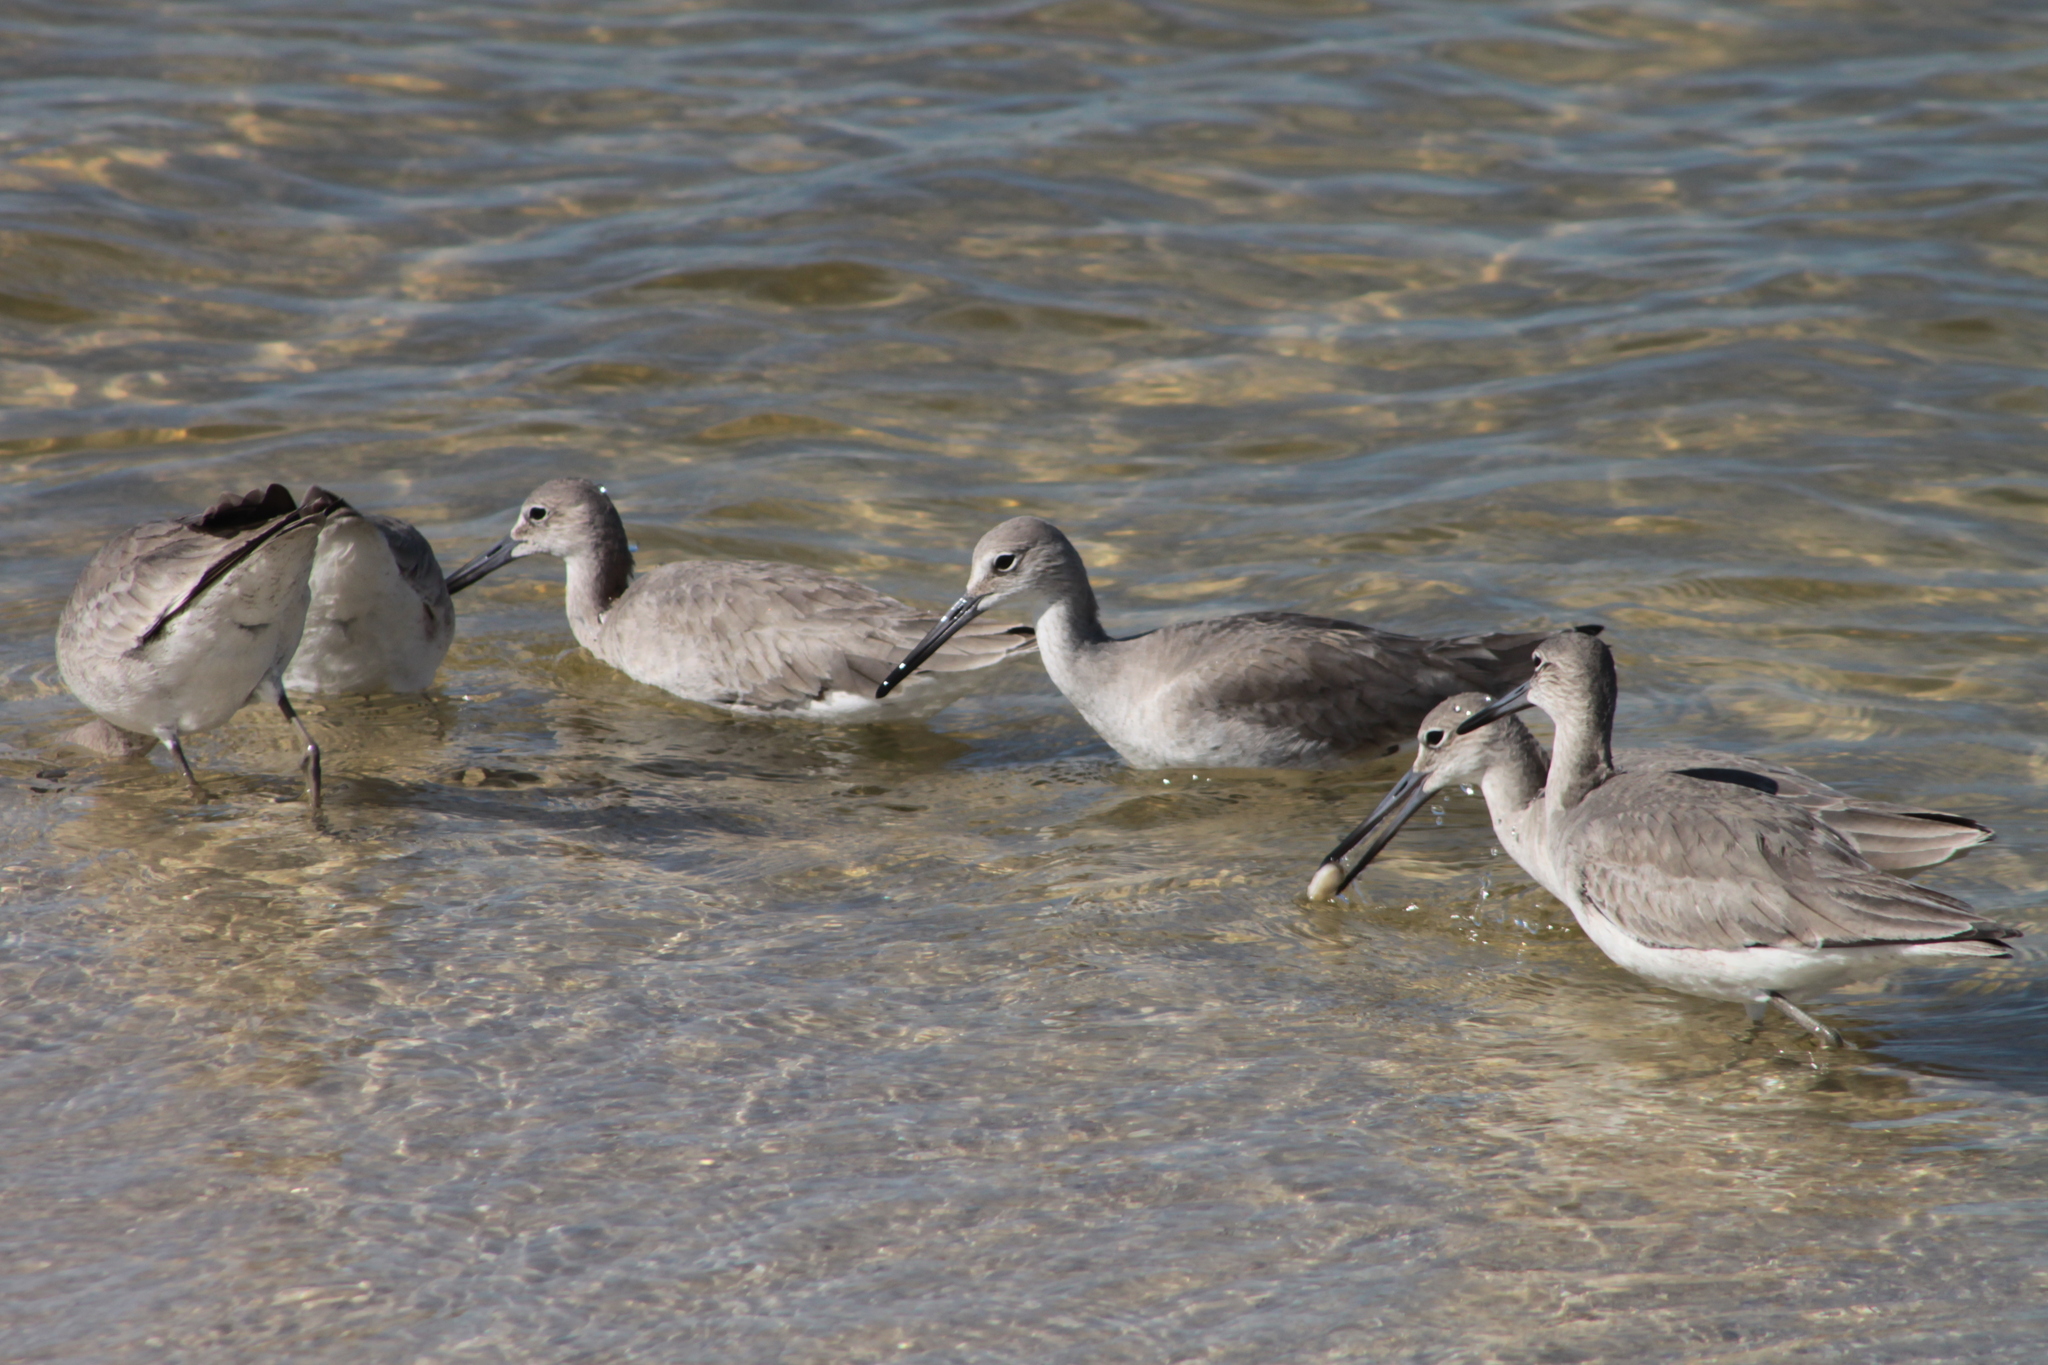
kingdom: Animalia
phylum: Chordata
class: Aves
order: Charadriiformes
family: Scolopacidae
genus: Tringa
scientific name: Tringa semipalmata
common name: Willet
